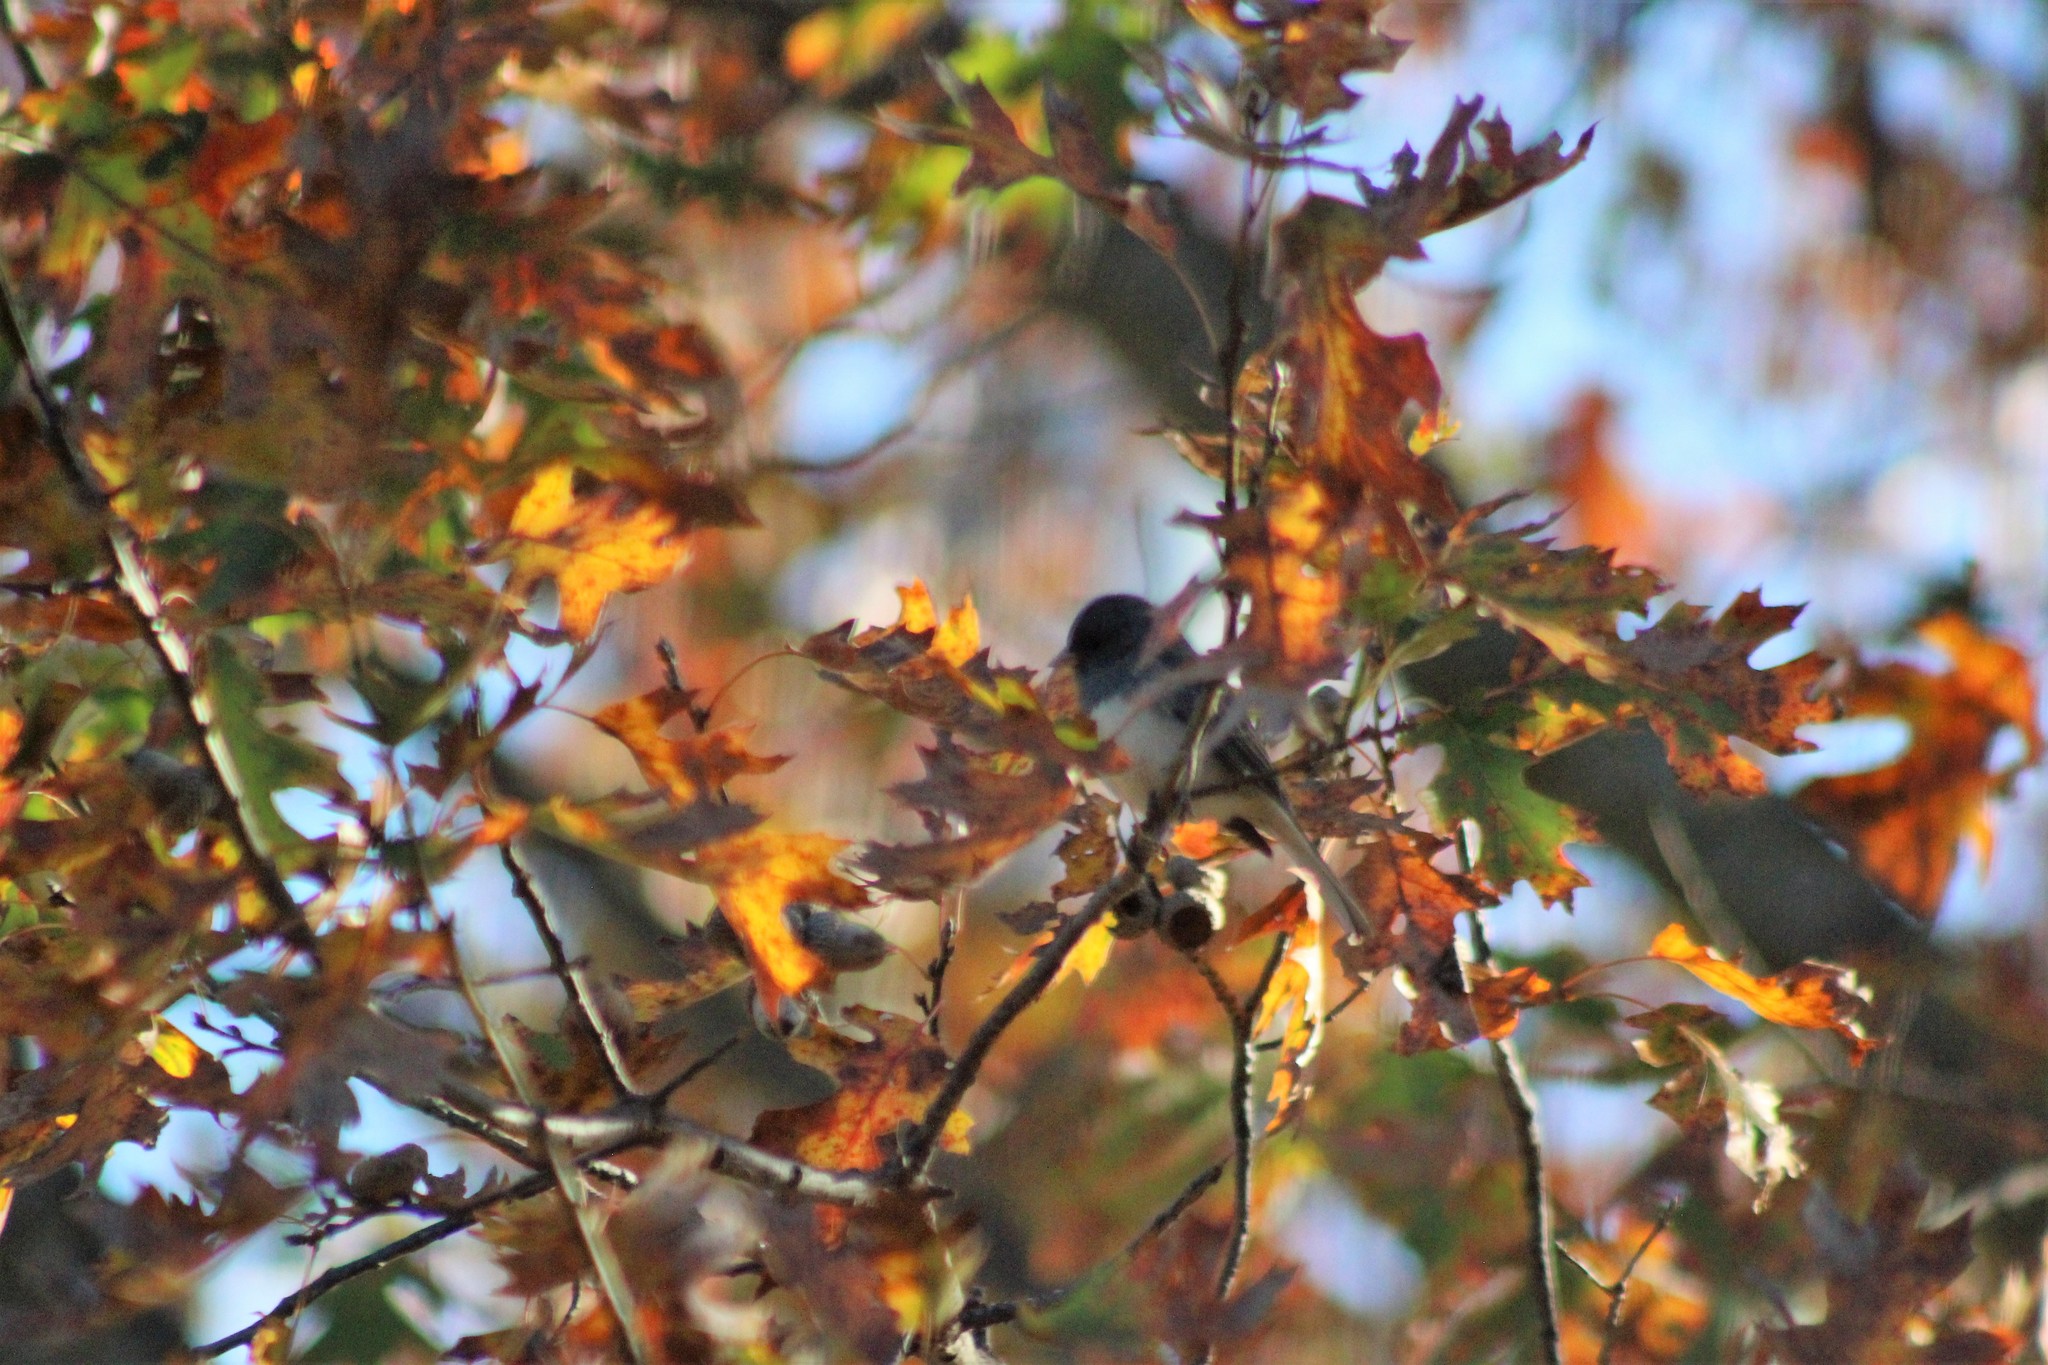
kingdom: Animalia
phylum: Chordata
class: Aves
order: Passeriformes
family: Passerellidae
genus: Junco
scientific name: Junco hyemalis
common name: Dark-eyed junco
